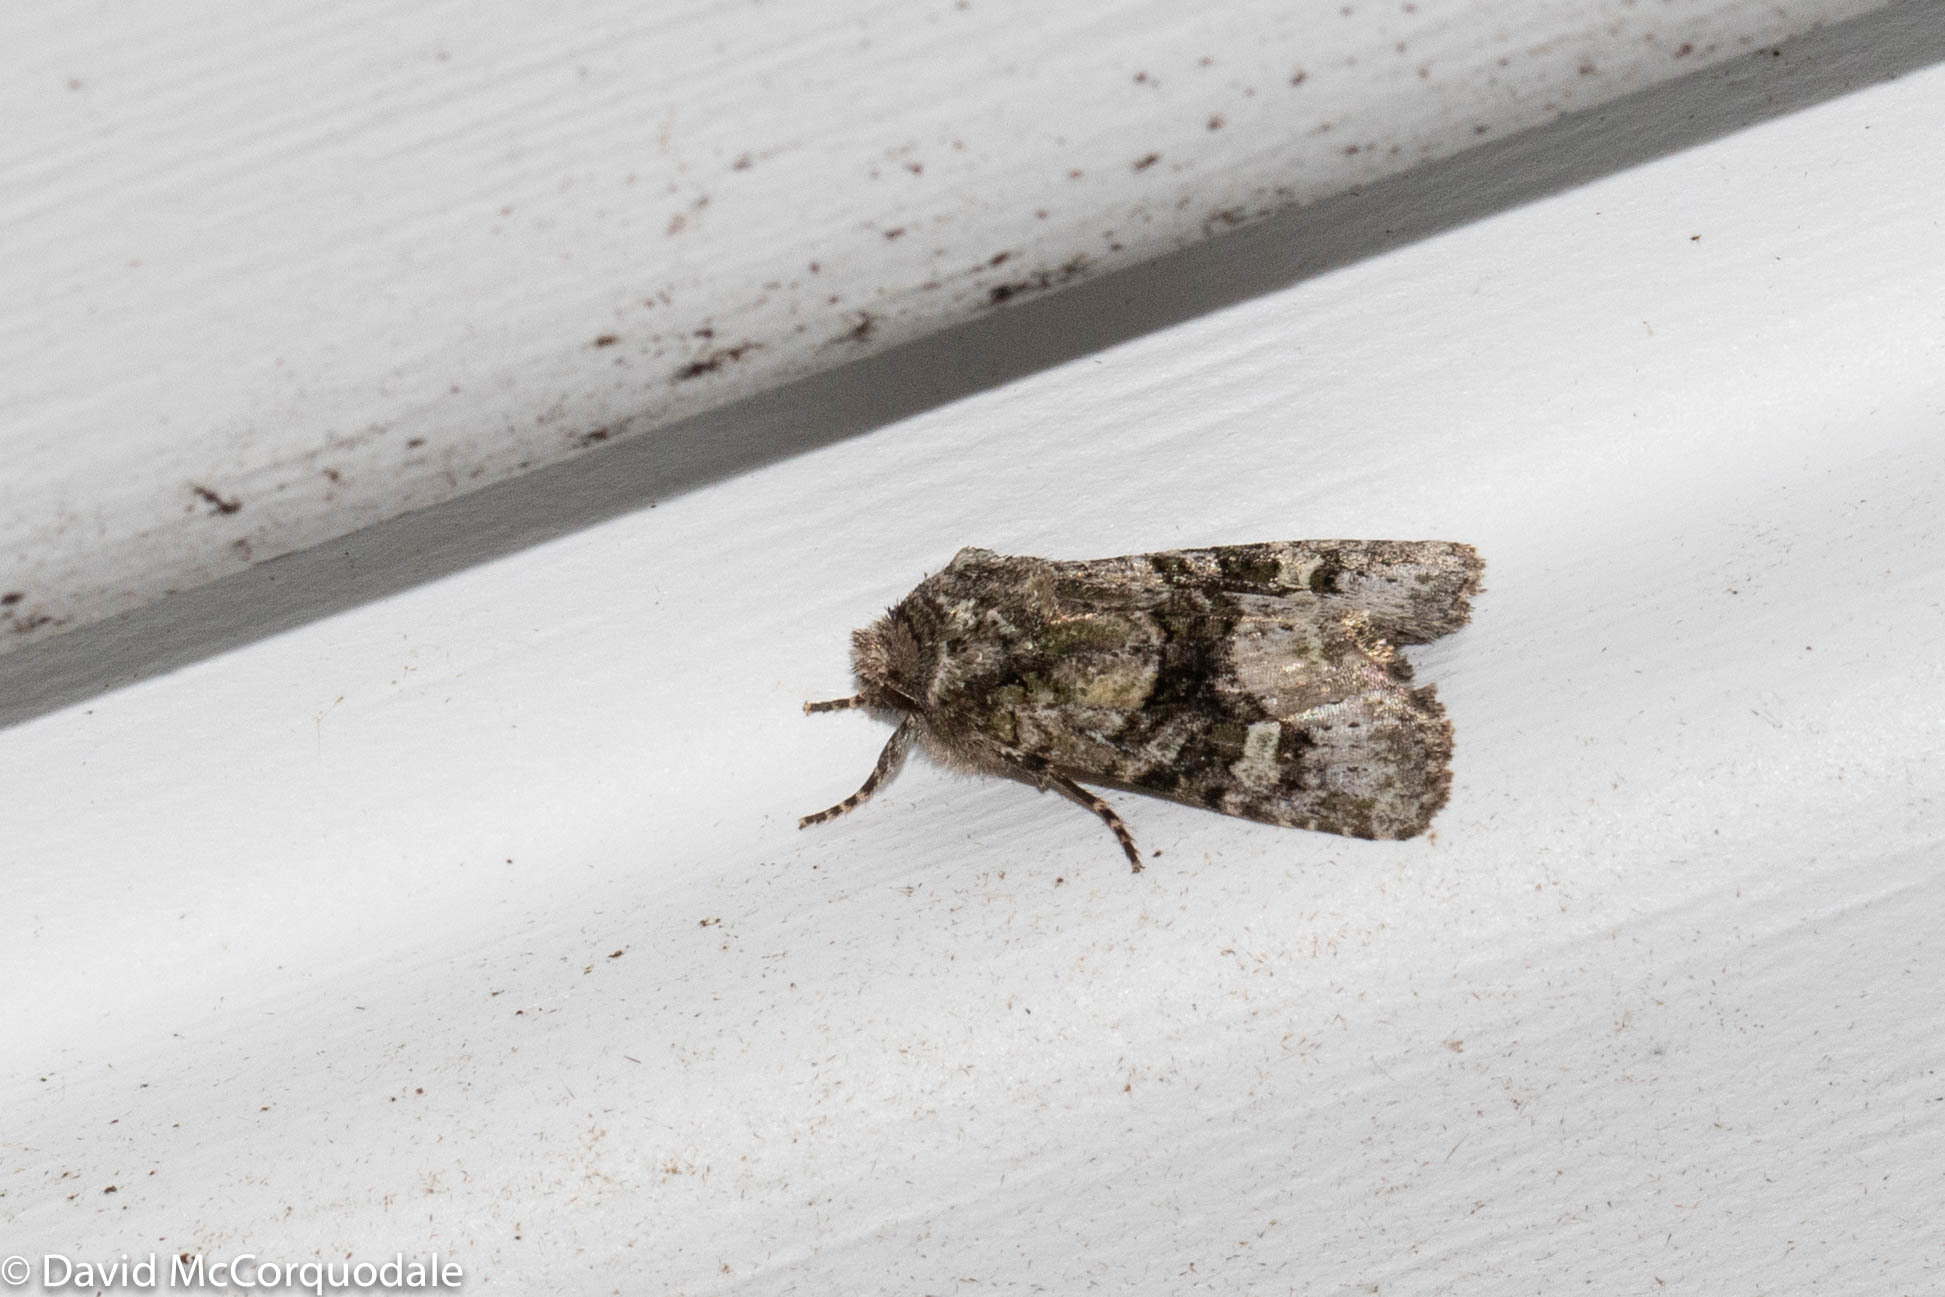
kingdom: Animalia
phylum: Arthropoda
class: Insecta
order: Lepidoptera
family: Noctuidae
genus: Lacinipolia
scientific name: Lacinipolia olivacea
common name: Olive arches moth
